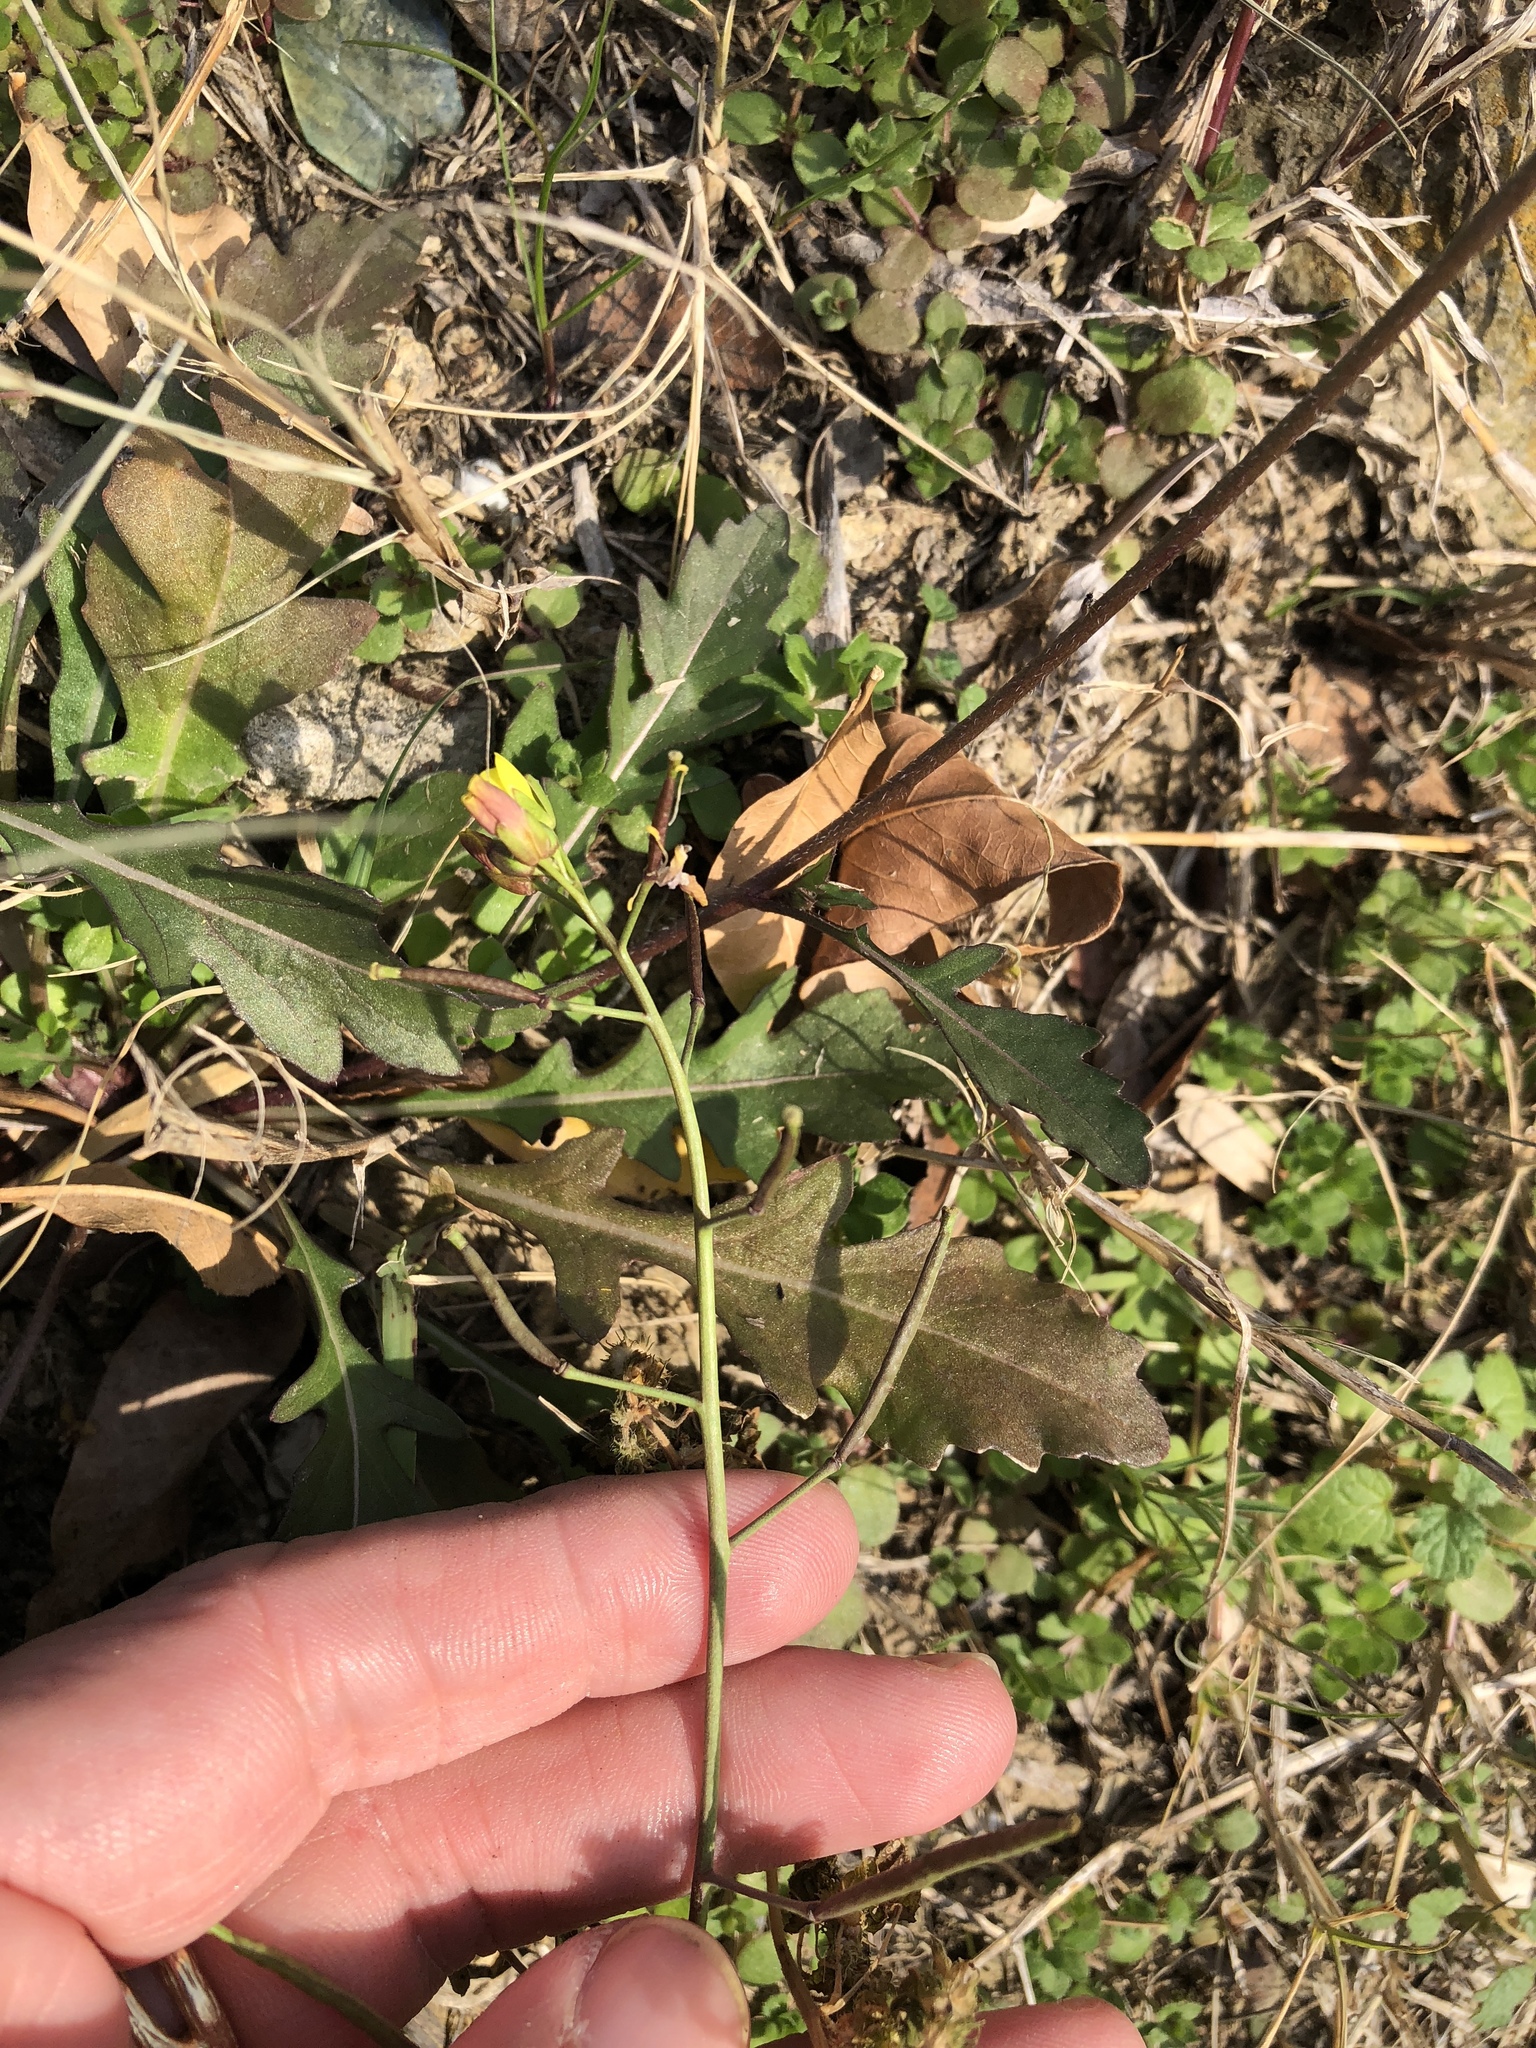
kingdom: Plantae
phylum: Tracheophyta
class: Magnoliopsida
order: Brassicales
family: Brassicaceae
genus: Diplotaxis
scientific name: Diplotaxis muralis
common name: Annual wall-rocket
